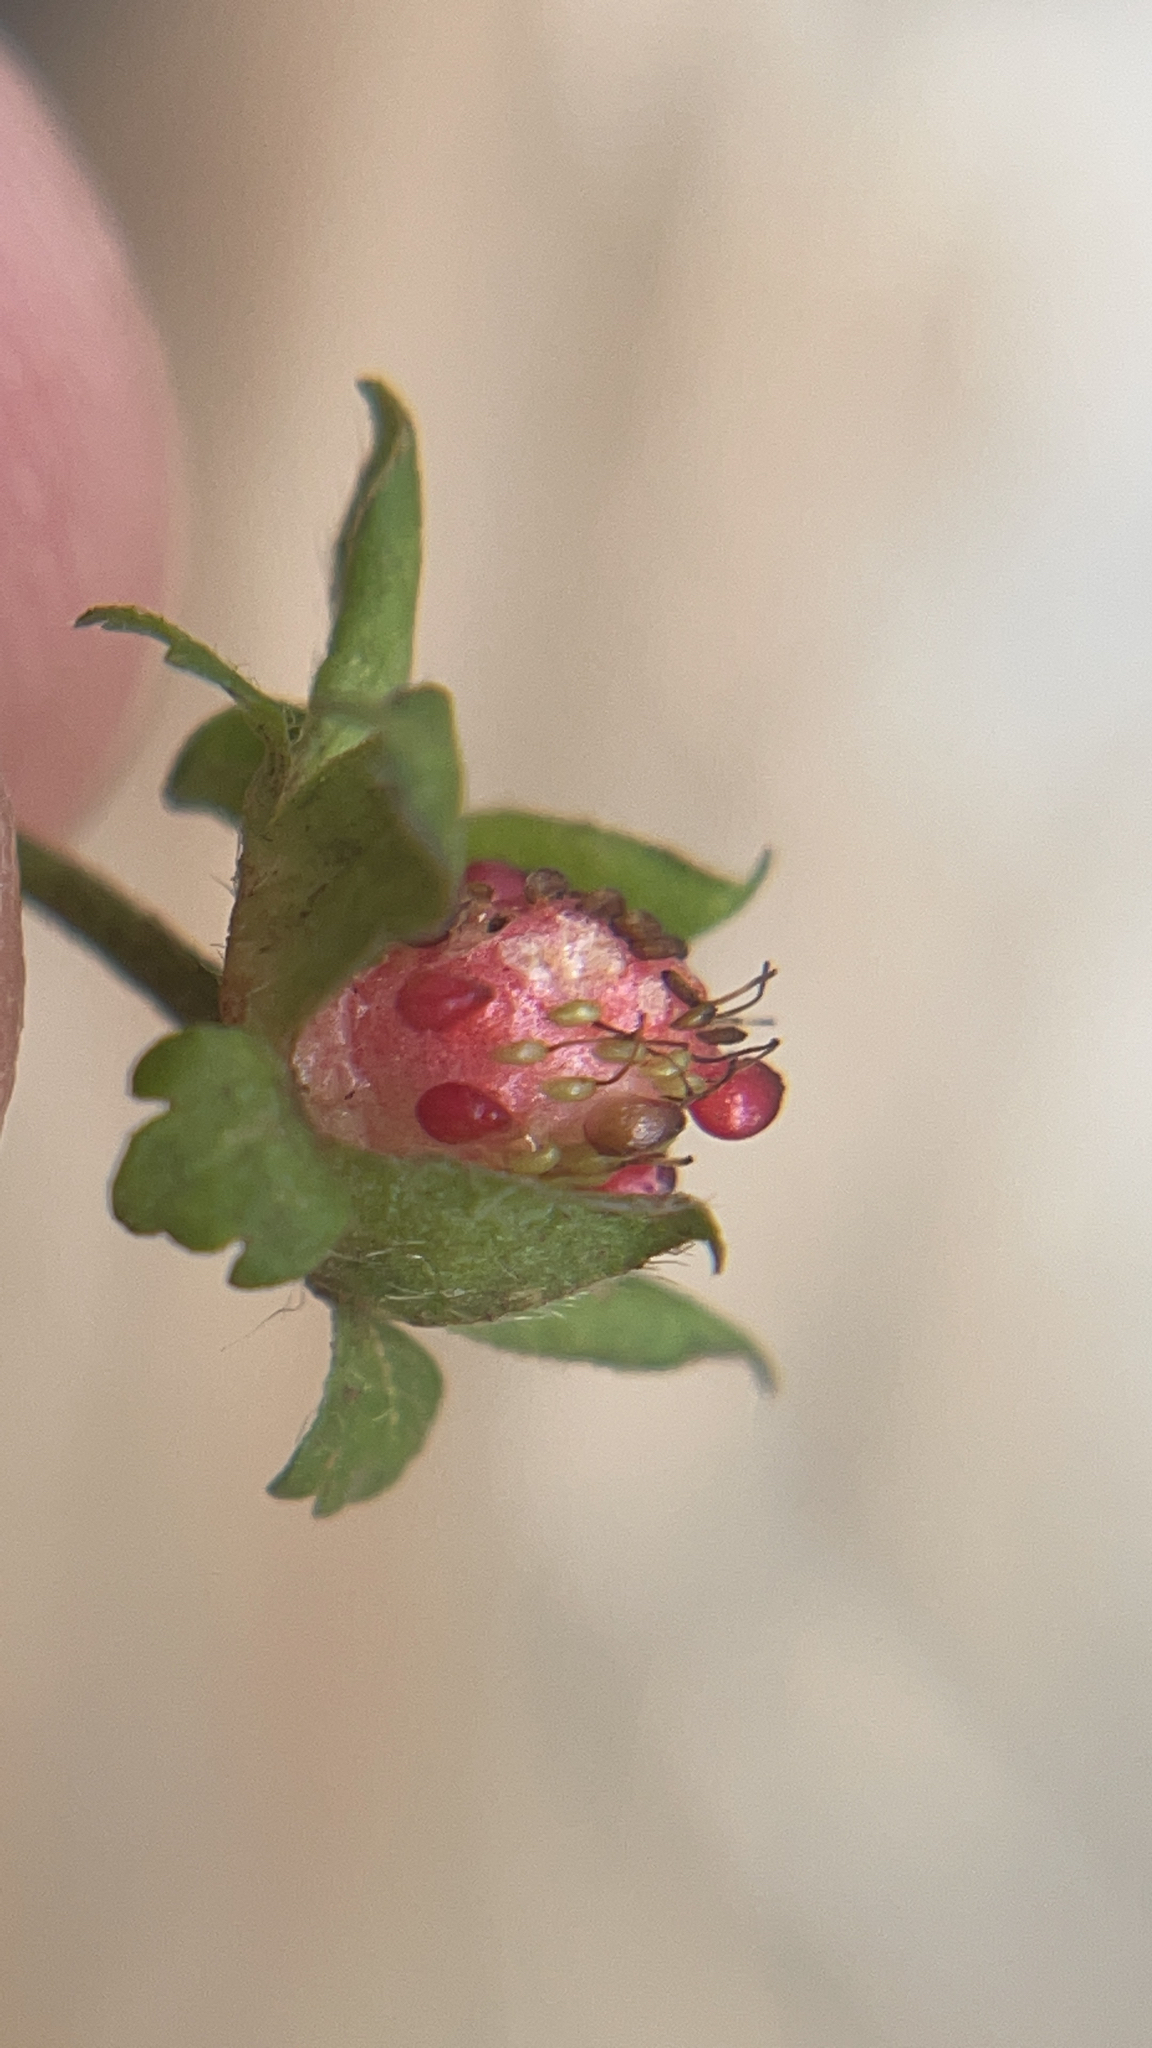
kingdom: Plantae
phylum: Tracheophyta
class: Magnoliopsida
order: Rosales
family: Rosaceae
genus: Potentilla
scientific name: Potentilla indica
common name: Yellow-flowered strawberry
